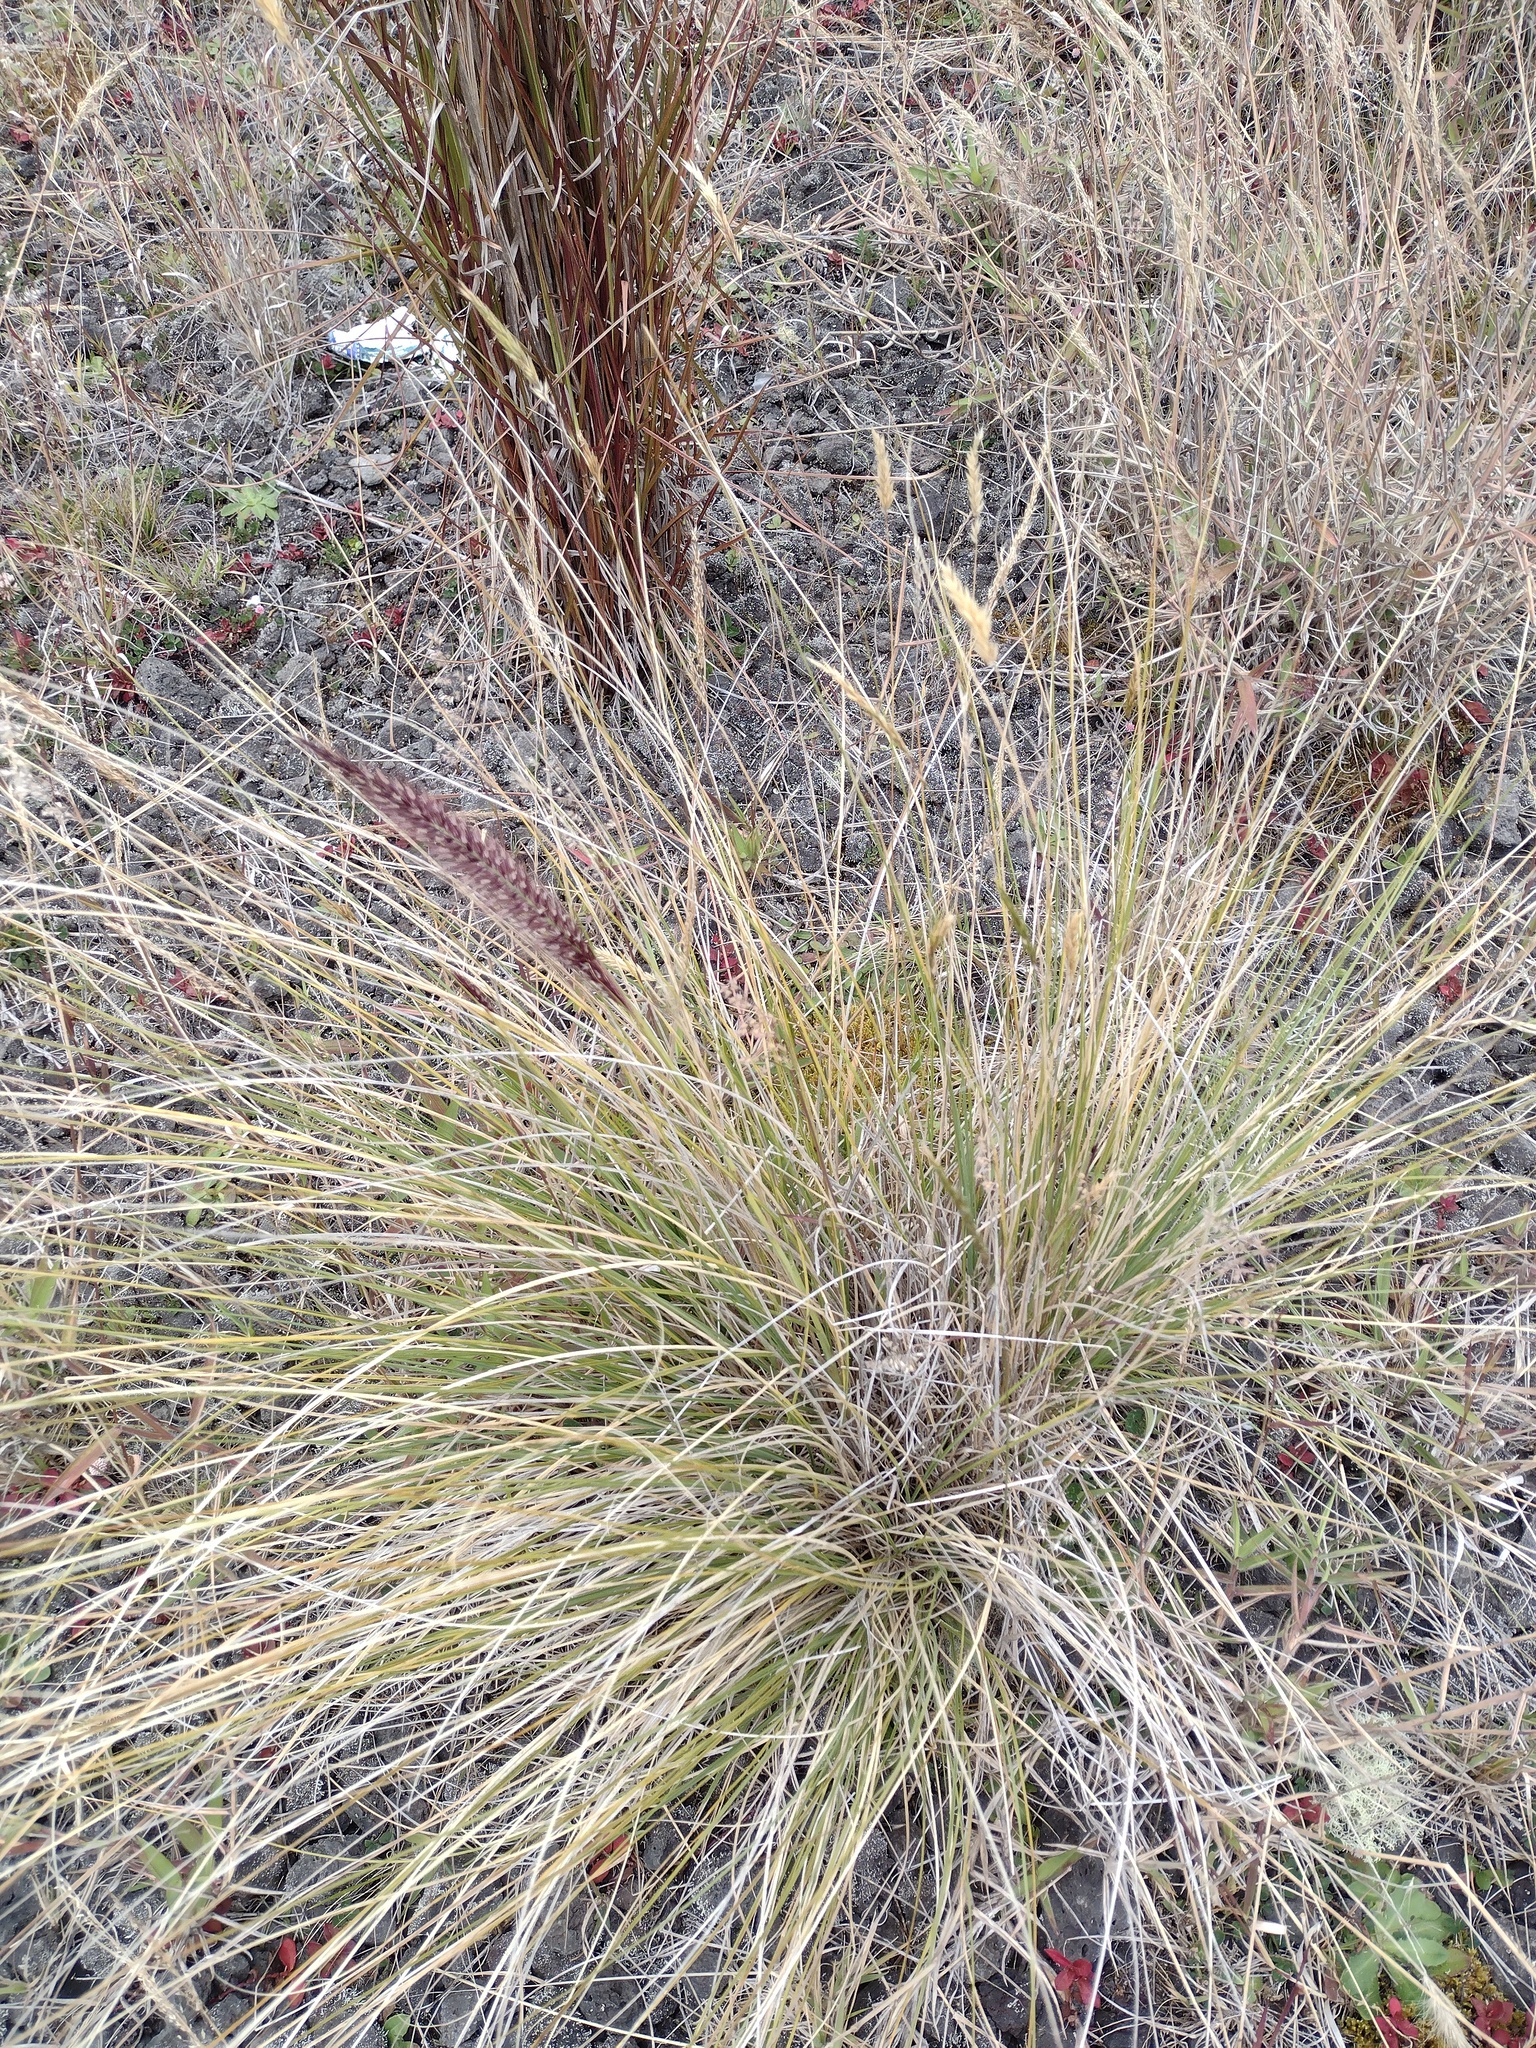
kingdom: Plantae
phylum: Tracheophyta
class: Liliopsida
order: Poales
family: Poaceae
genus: Cenchrus
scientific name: Cenchrus setaceus
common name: Crimson fountaingrass
